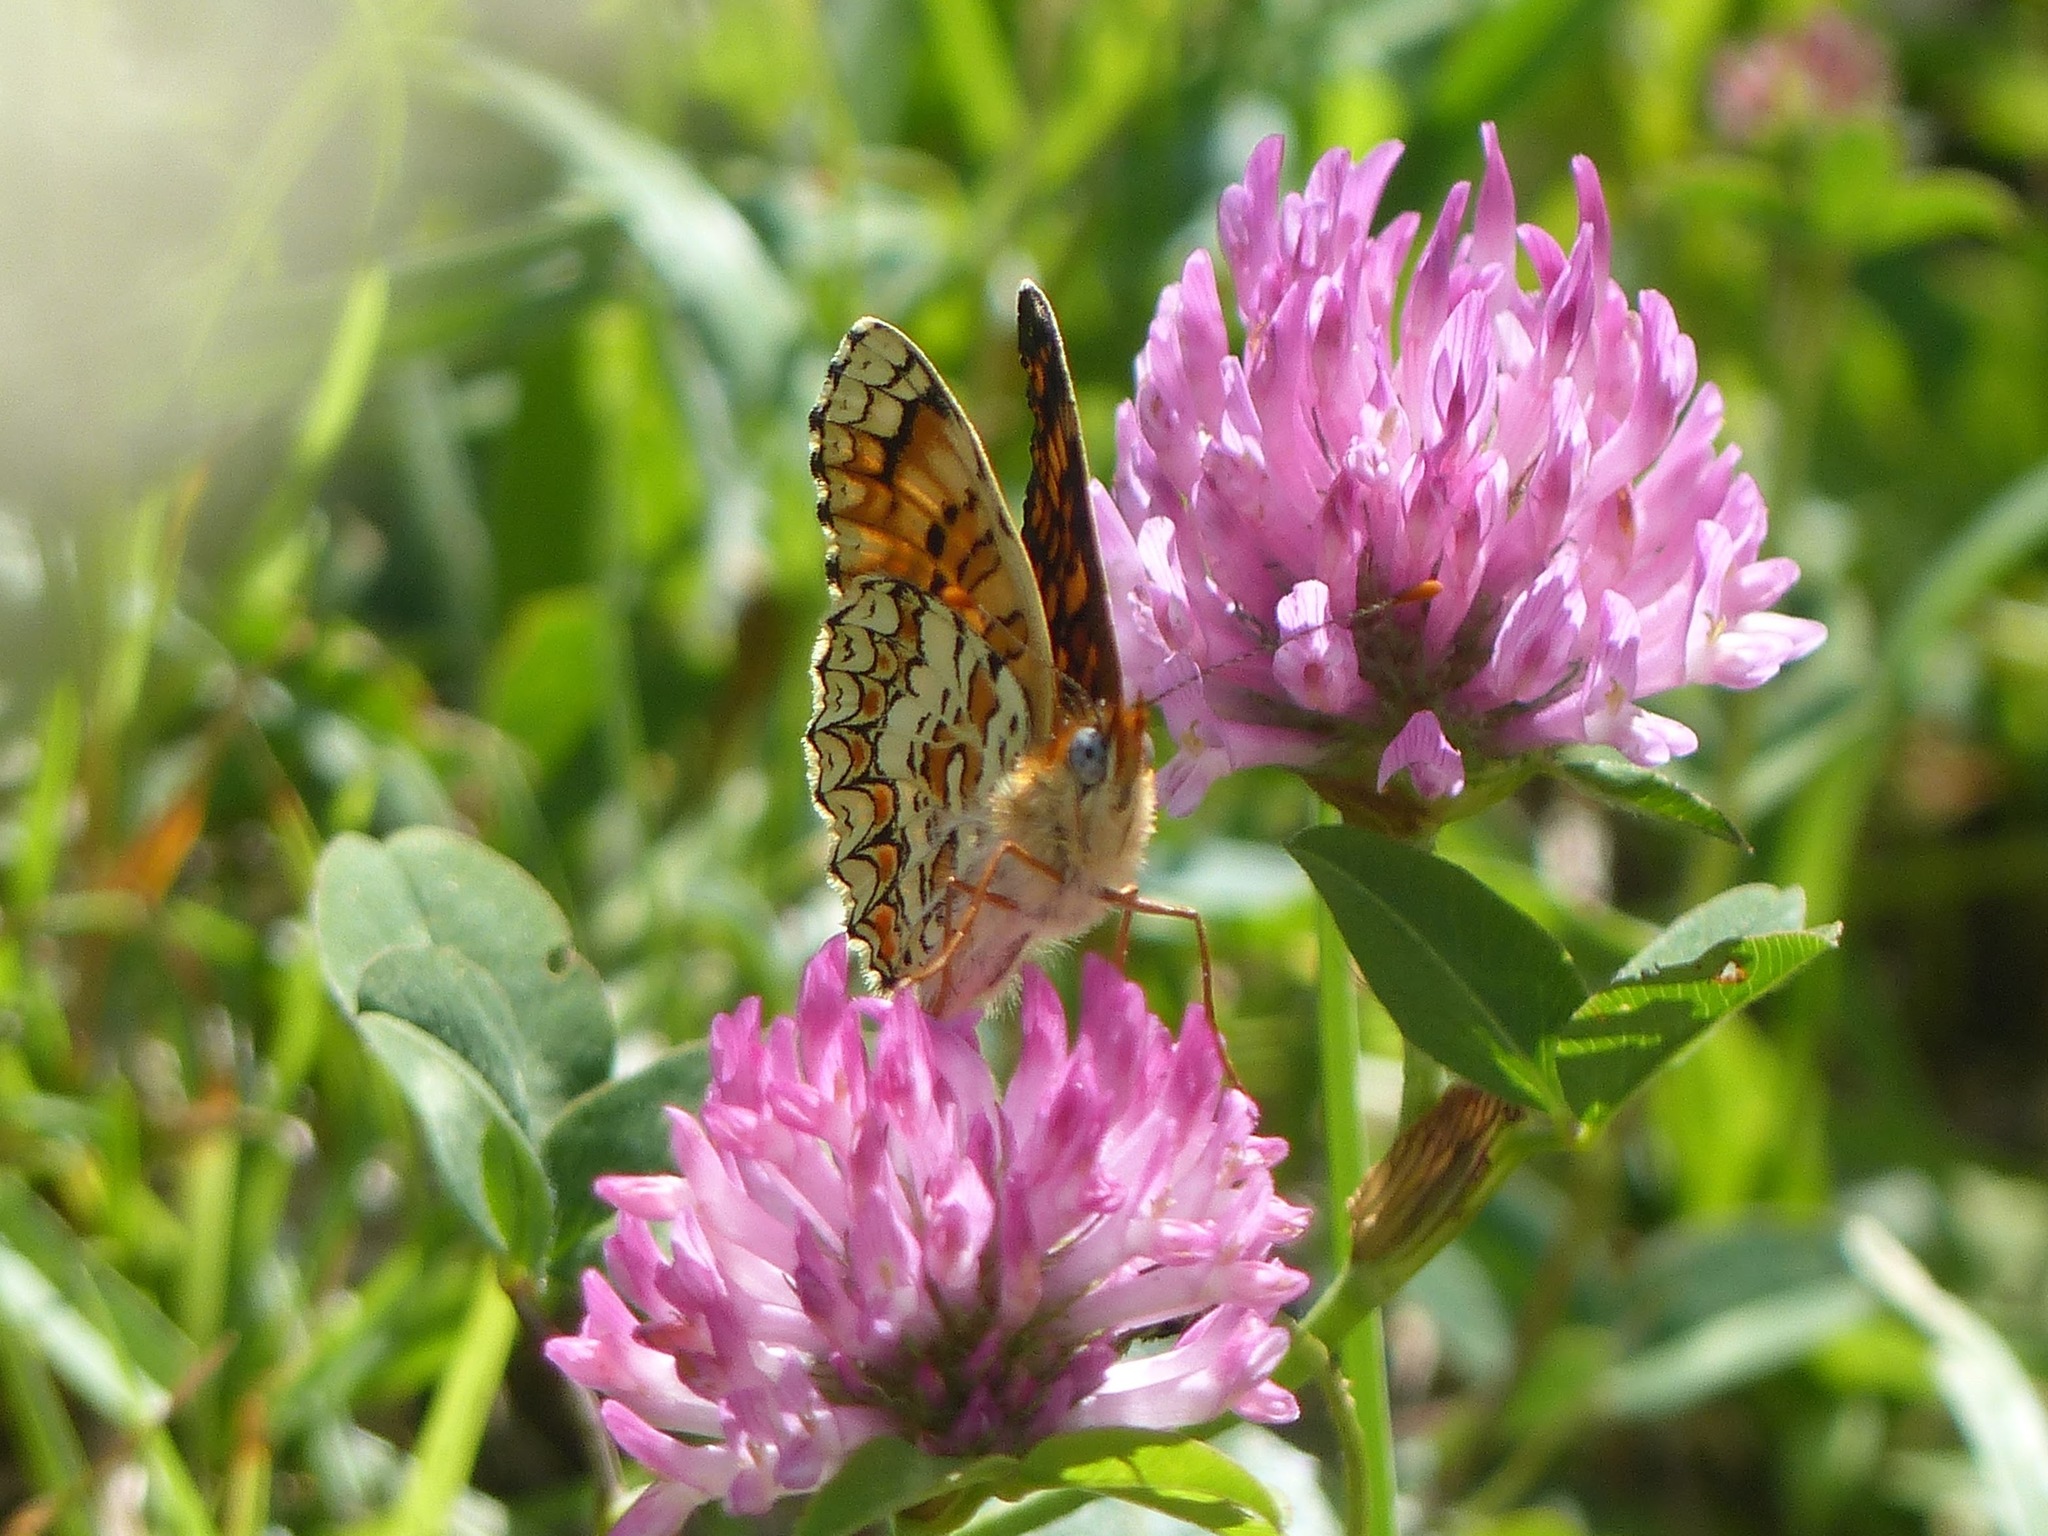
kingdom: Animalia
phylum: Arthropoda
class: Insecta
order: Lepidoptera
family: Nymphalidae
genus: Melitaea
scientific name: Melitaea phoebe
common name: Knapweed fritillary
